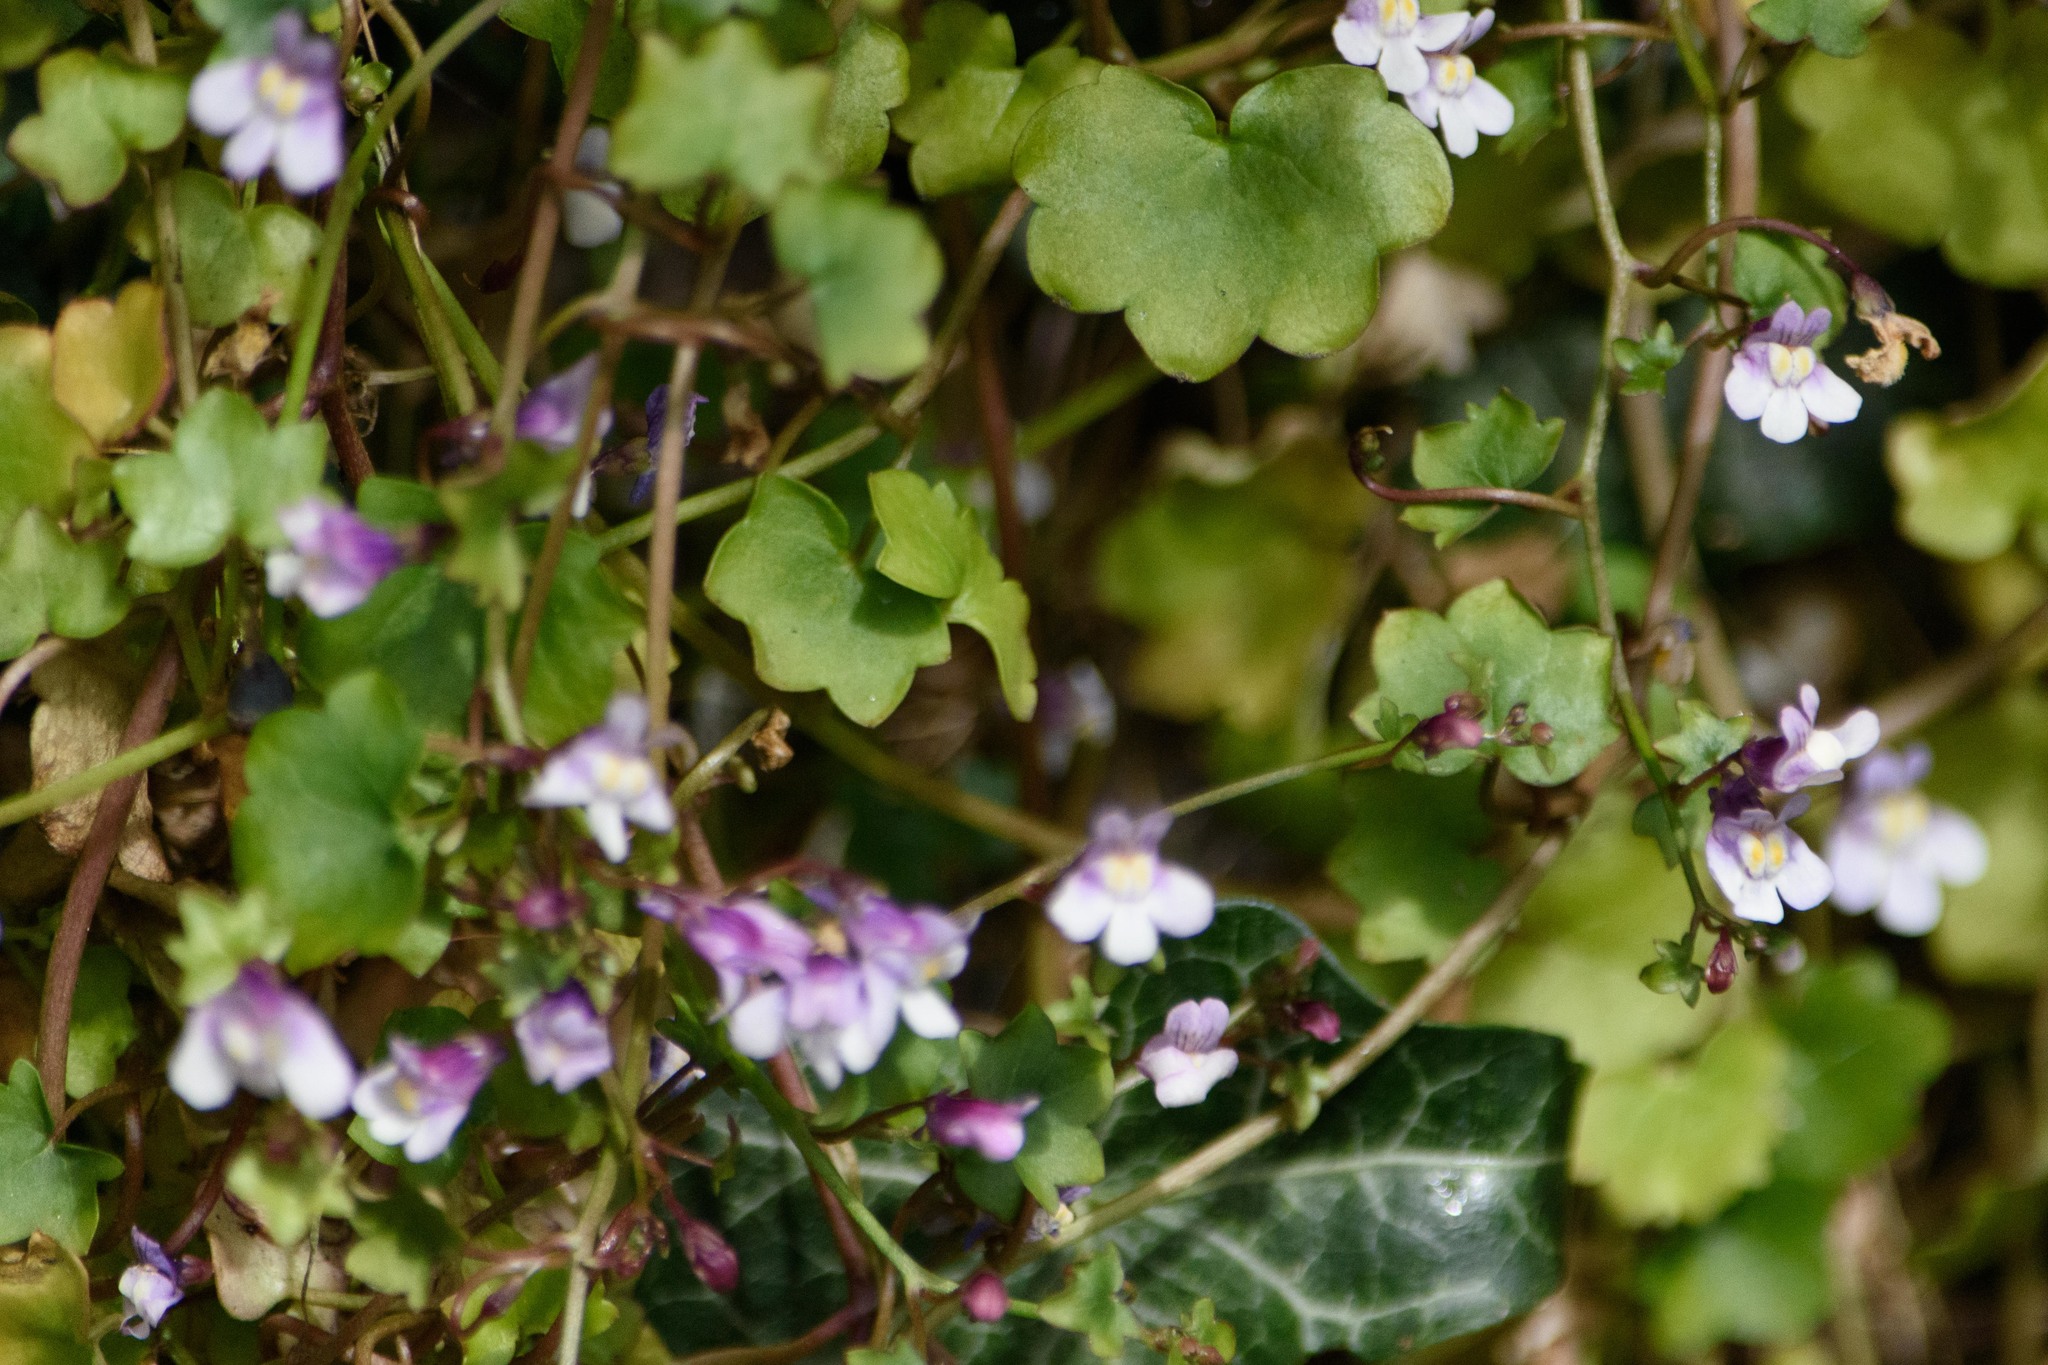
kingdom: Plantae
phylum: Tracheophyta
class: Magnoliopsida
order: Lamiales
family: Plantaginaceae
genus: Cymbalaria
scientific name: Cymbalaria muralis
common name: Ivy-leaved toadflax
